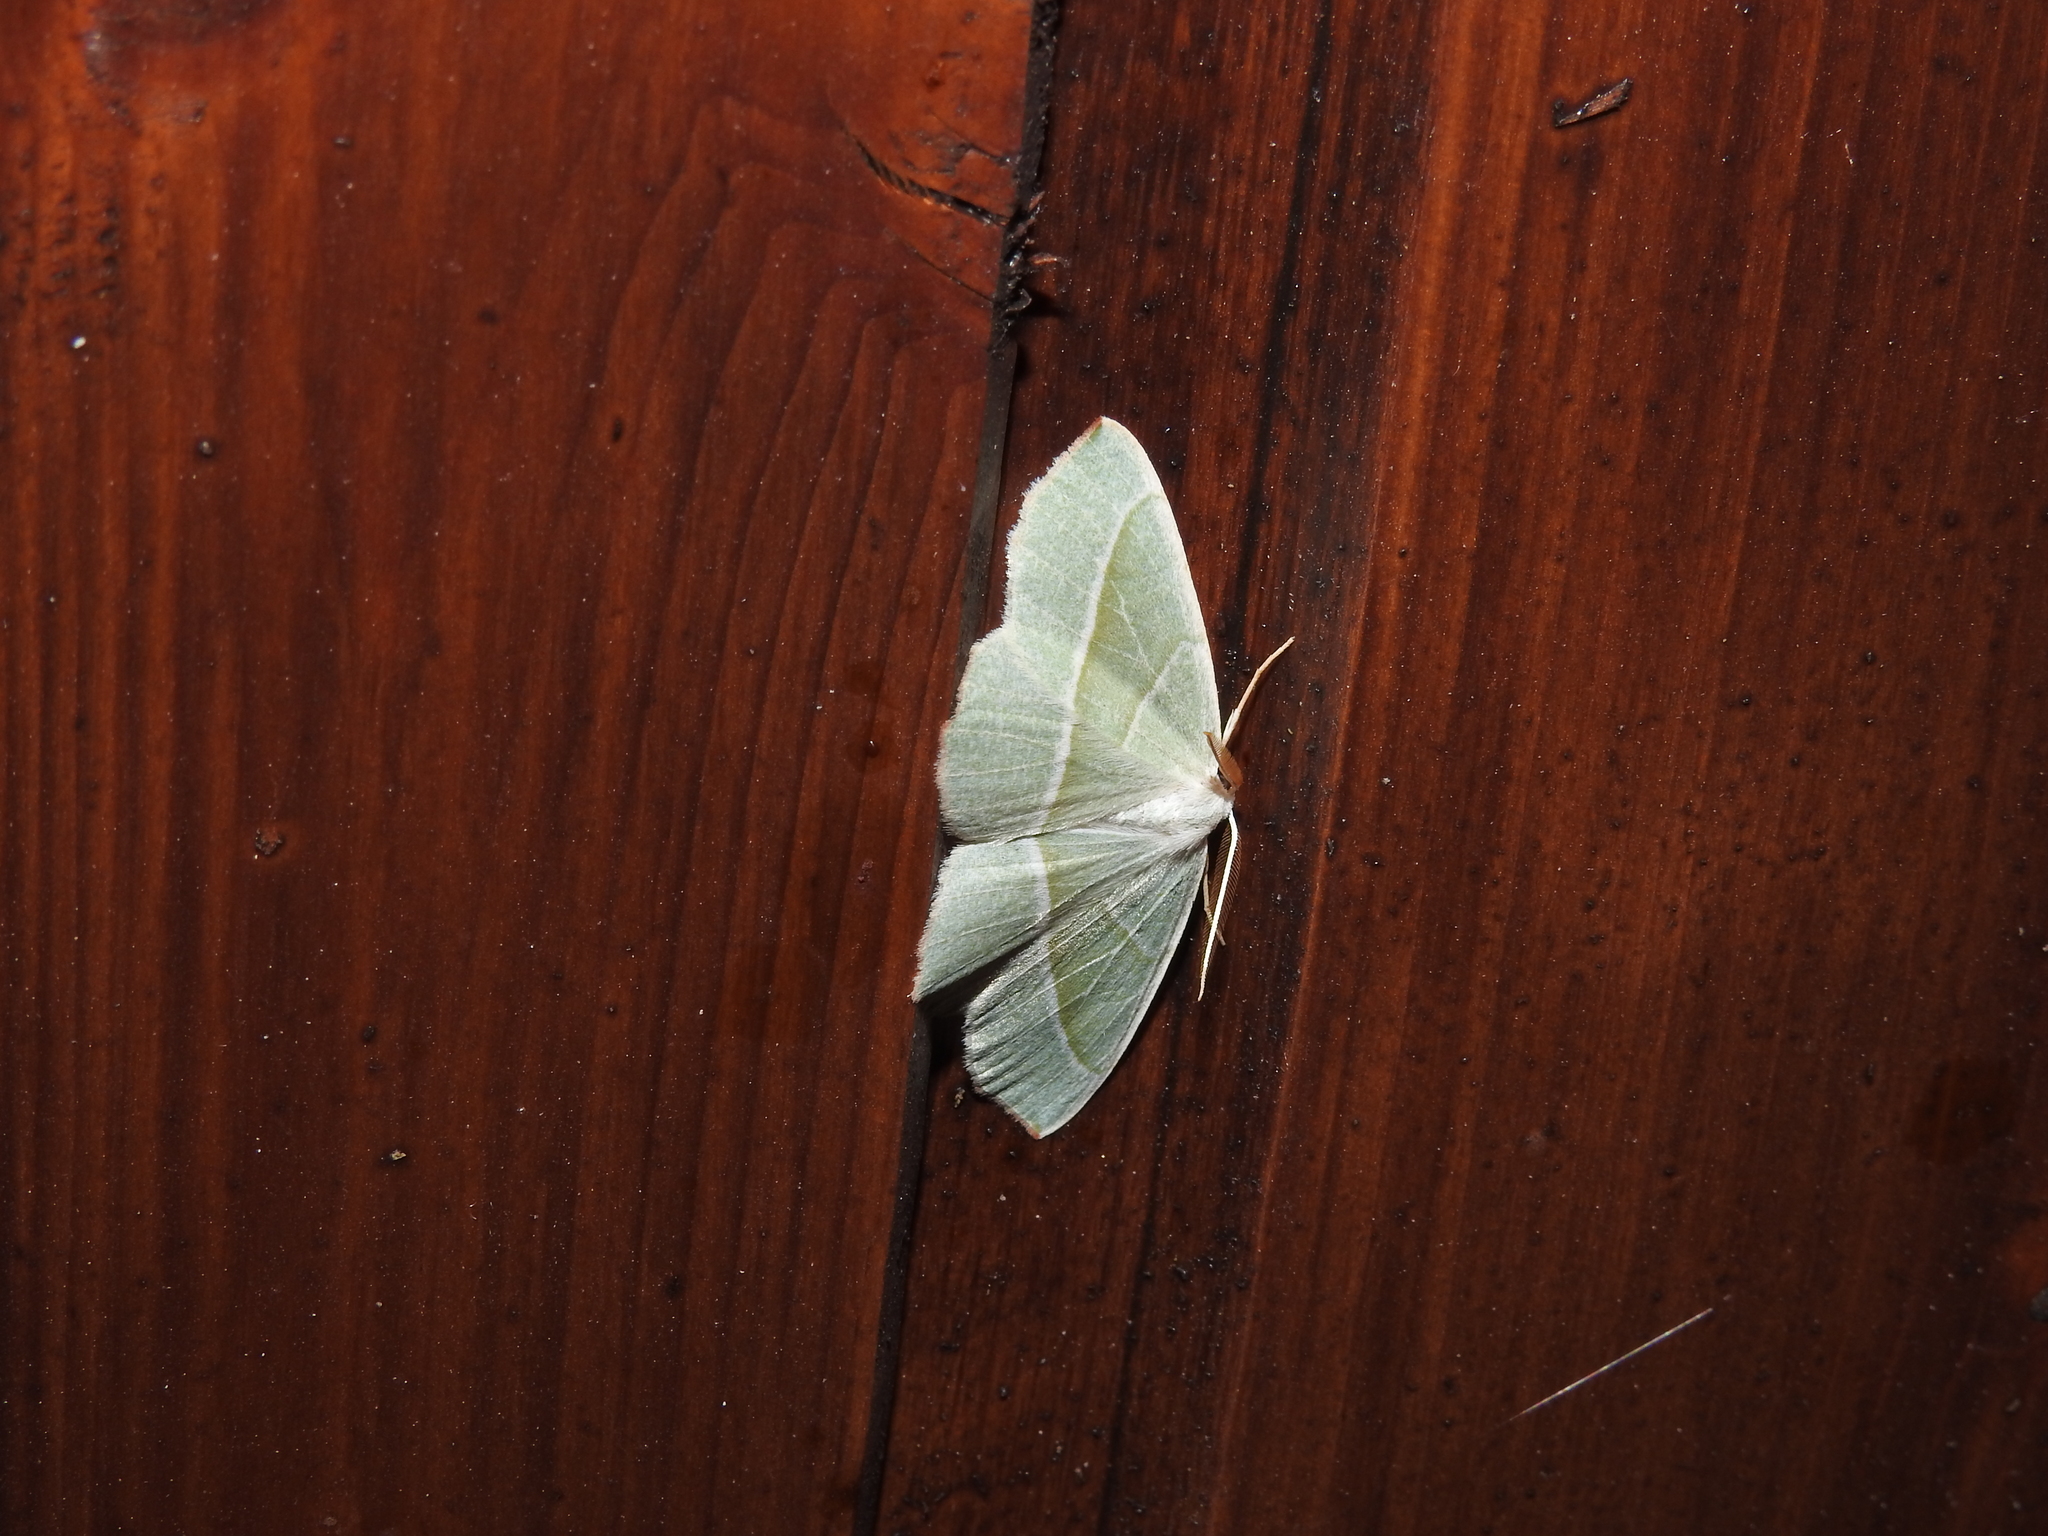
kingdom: Animalia
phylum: Arthropoda
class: Insecta
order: Lepidoptera
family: Geometridae
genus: Campaea
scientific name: Campaea margaritaria
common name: Light emerald
